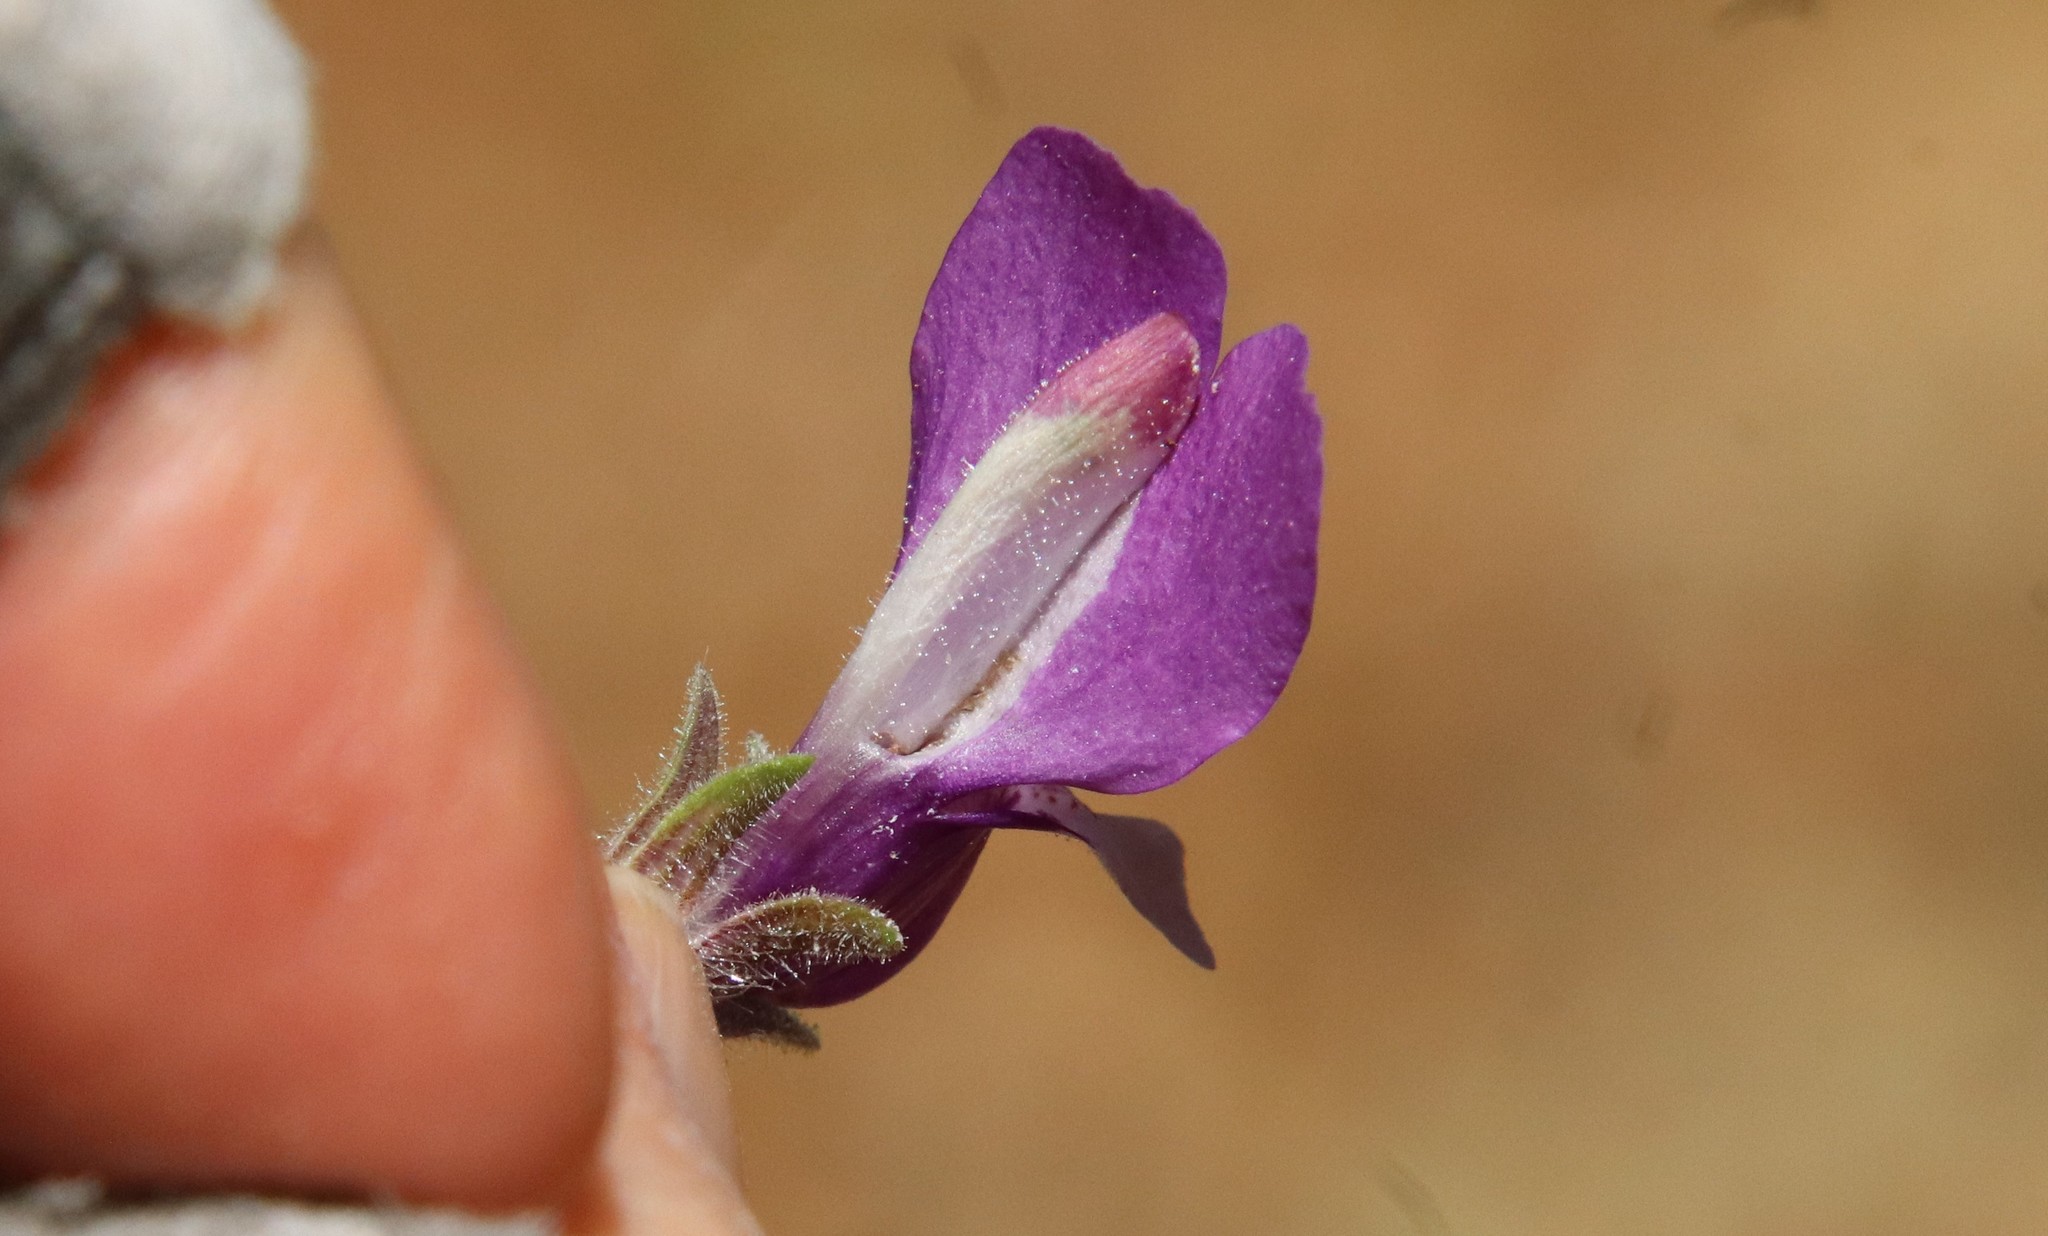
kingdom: Plantae
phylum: Tracheophyta
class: Magnoliopsida
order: Lamiales
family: Plantaginaceae
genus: Collinsia
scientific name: Collinsia heterophylla
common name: Chinese-houses
